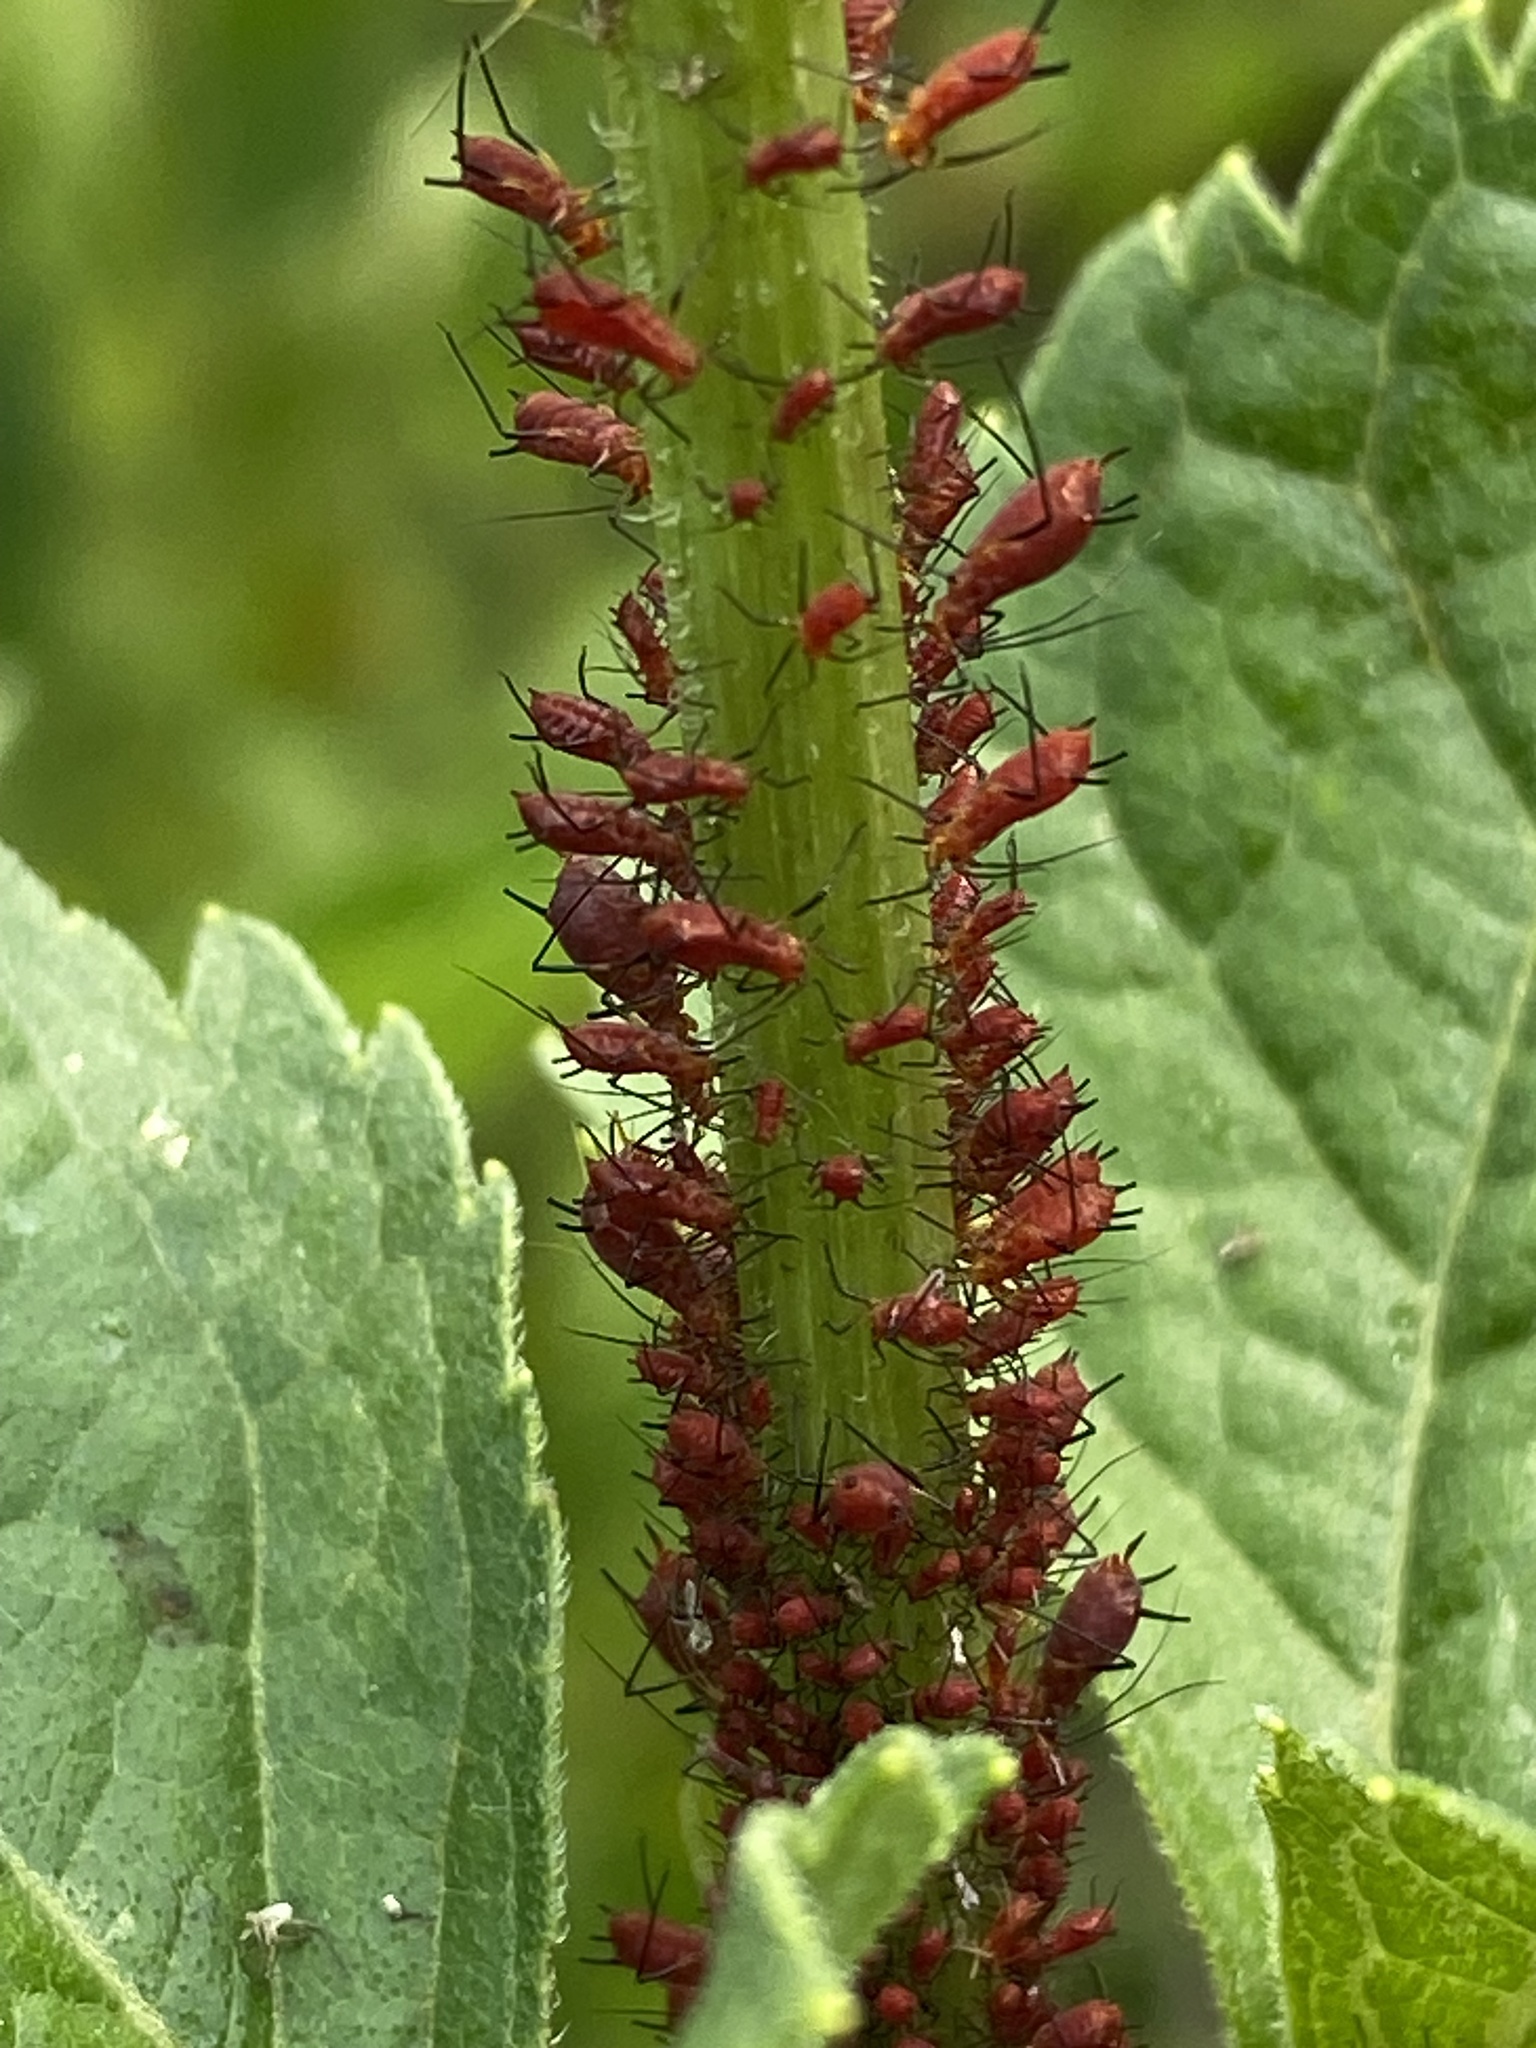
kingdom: Animalia
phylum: Arthropoda
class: Insecta
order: Hemiptera
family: Aphididae
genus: Uroleucon
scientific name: Uroleucon obscuricaudatum
